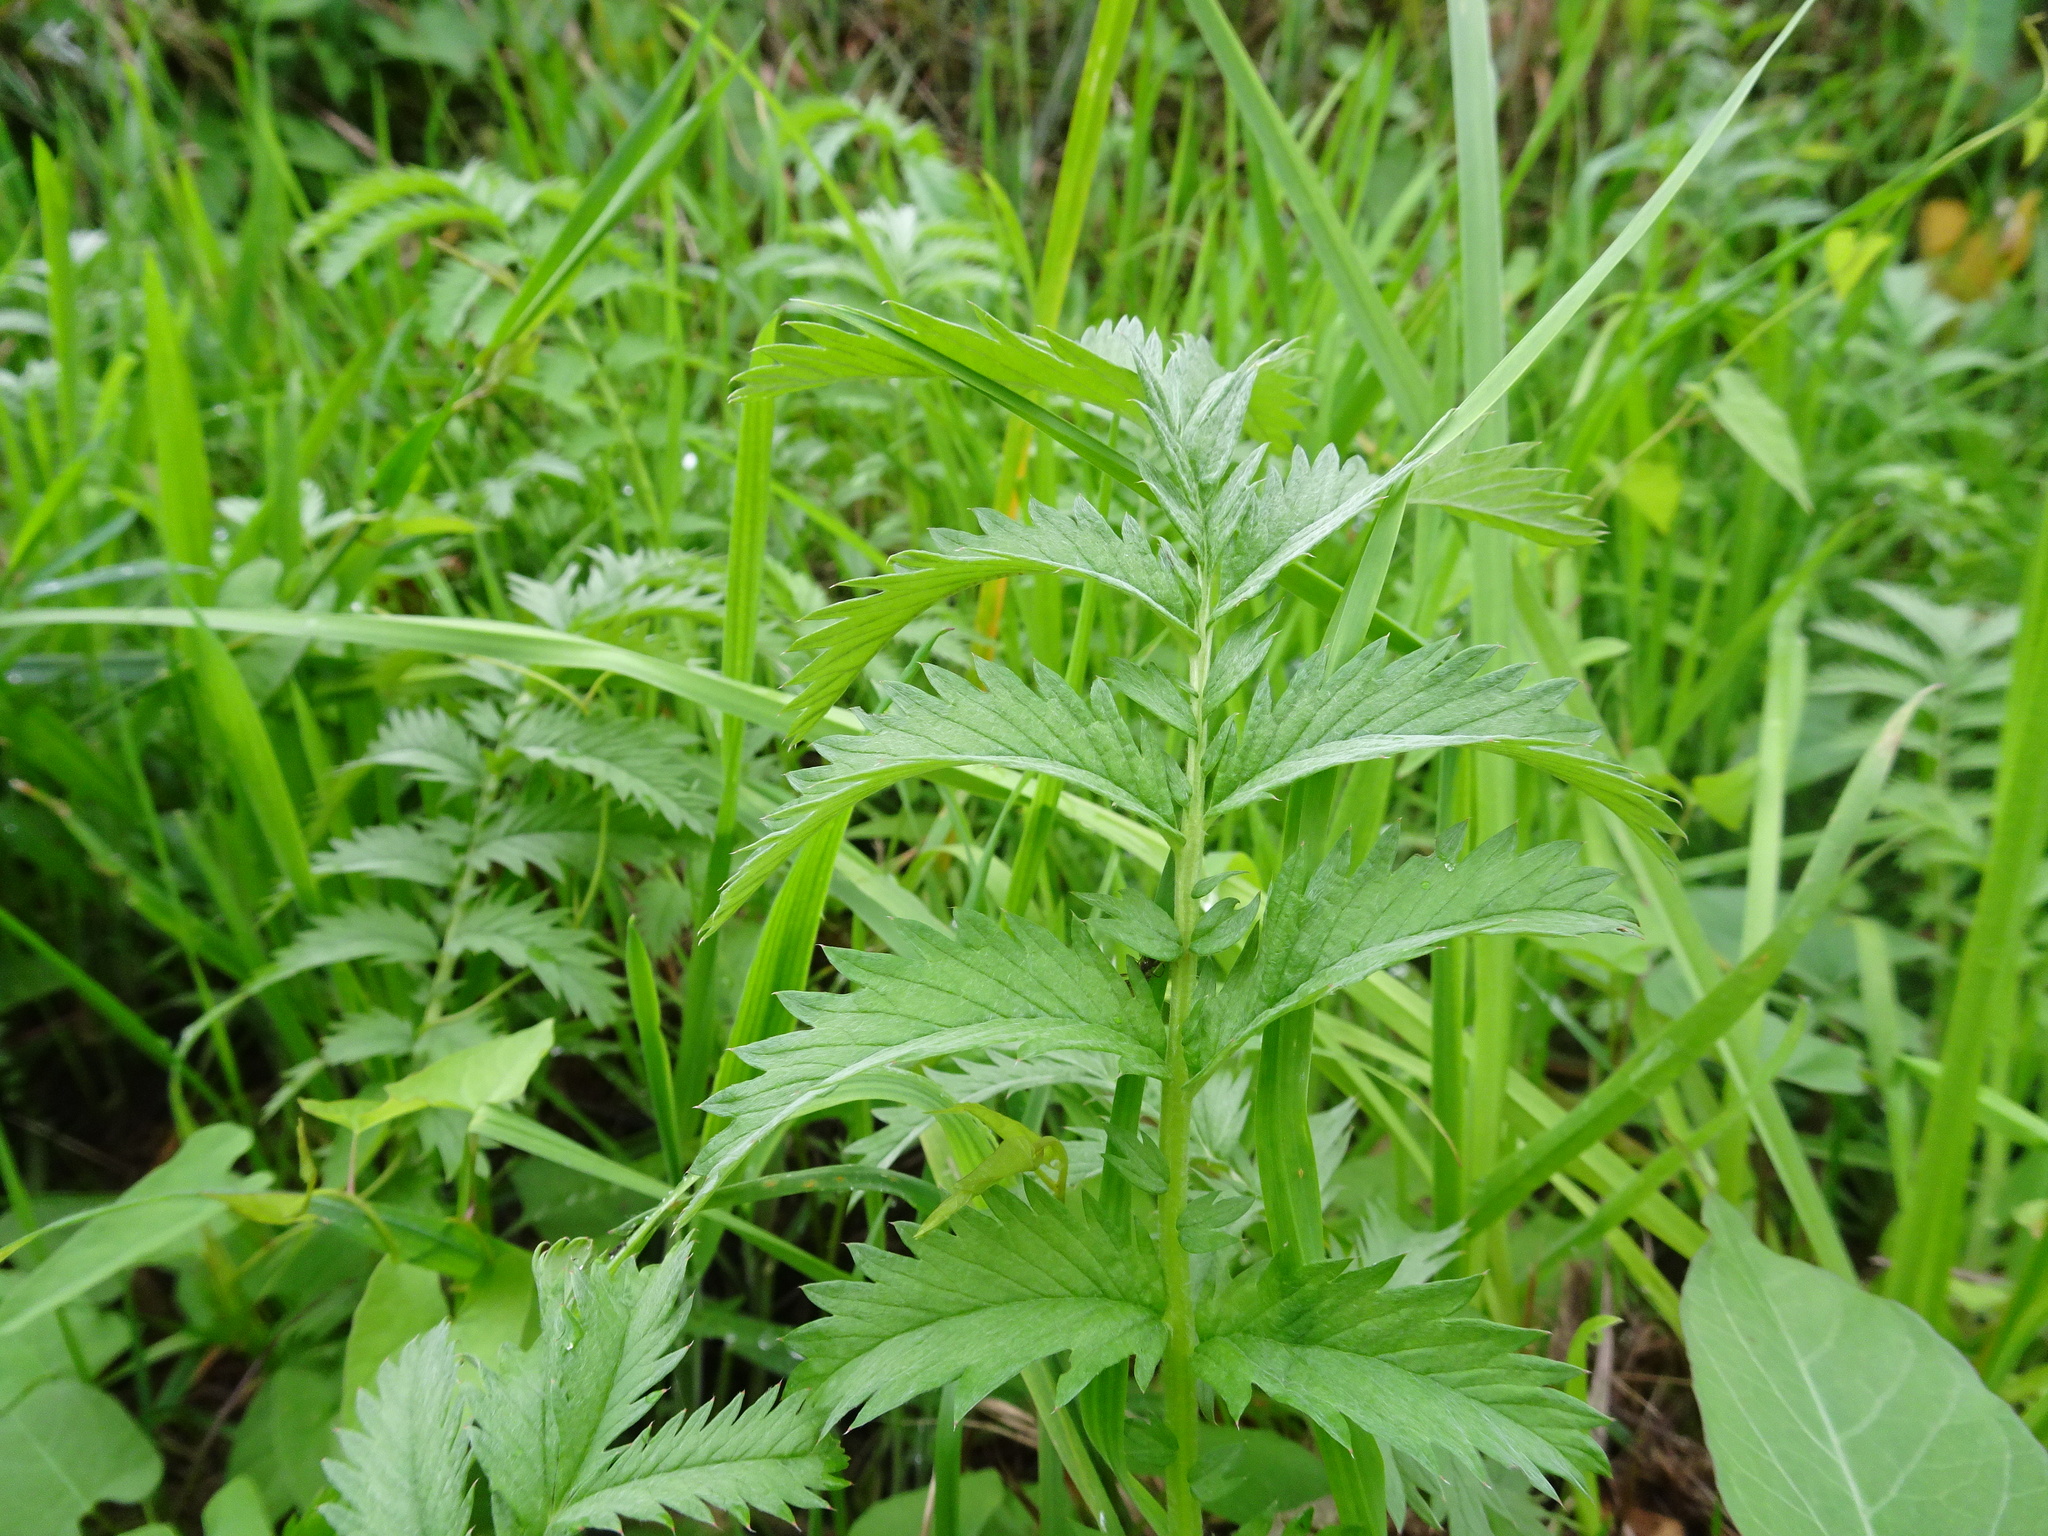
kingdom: Plantae
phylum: Tracheophyta
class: Magnoliopsida
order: Rosales
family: Rosaceae
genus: Argentina
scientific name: Argentina anserina
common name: Common silverweed
